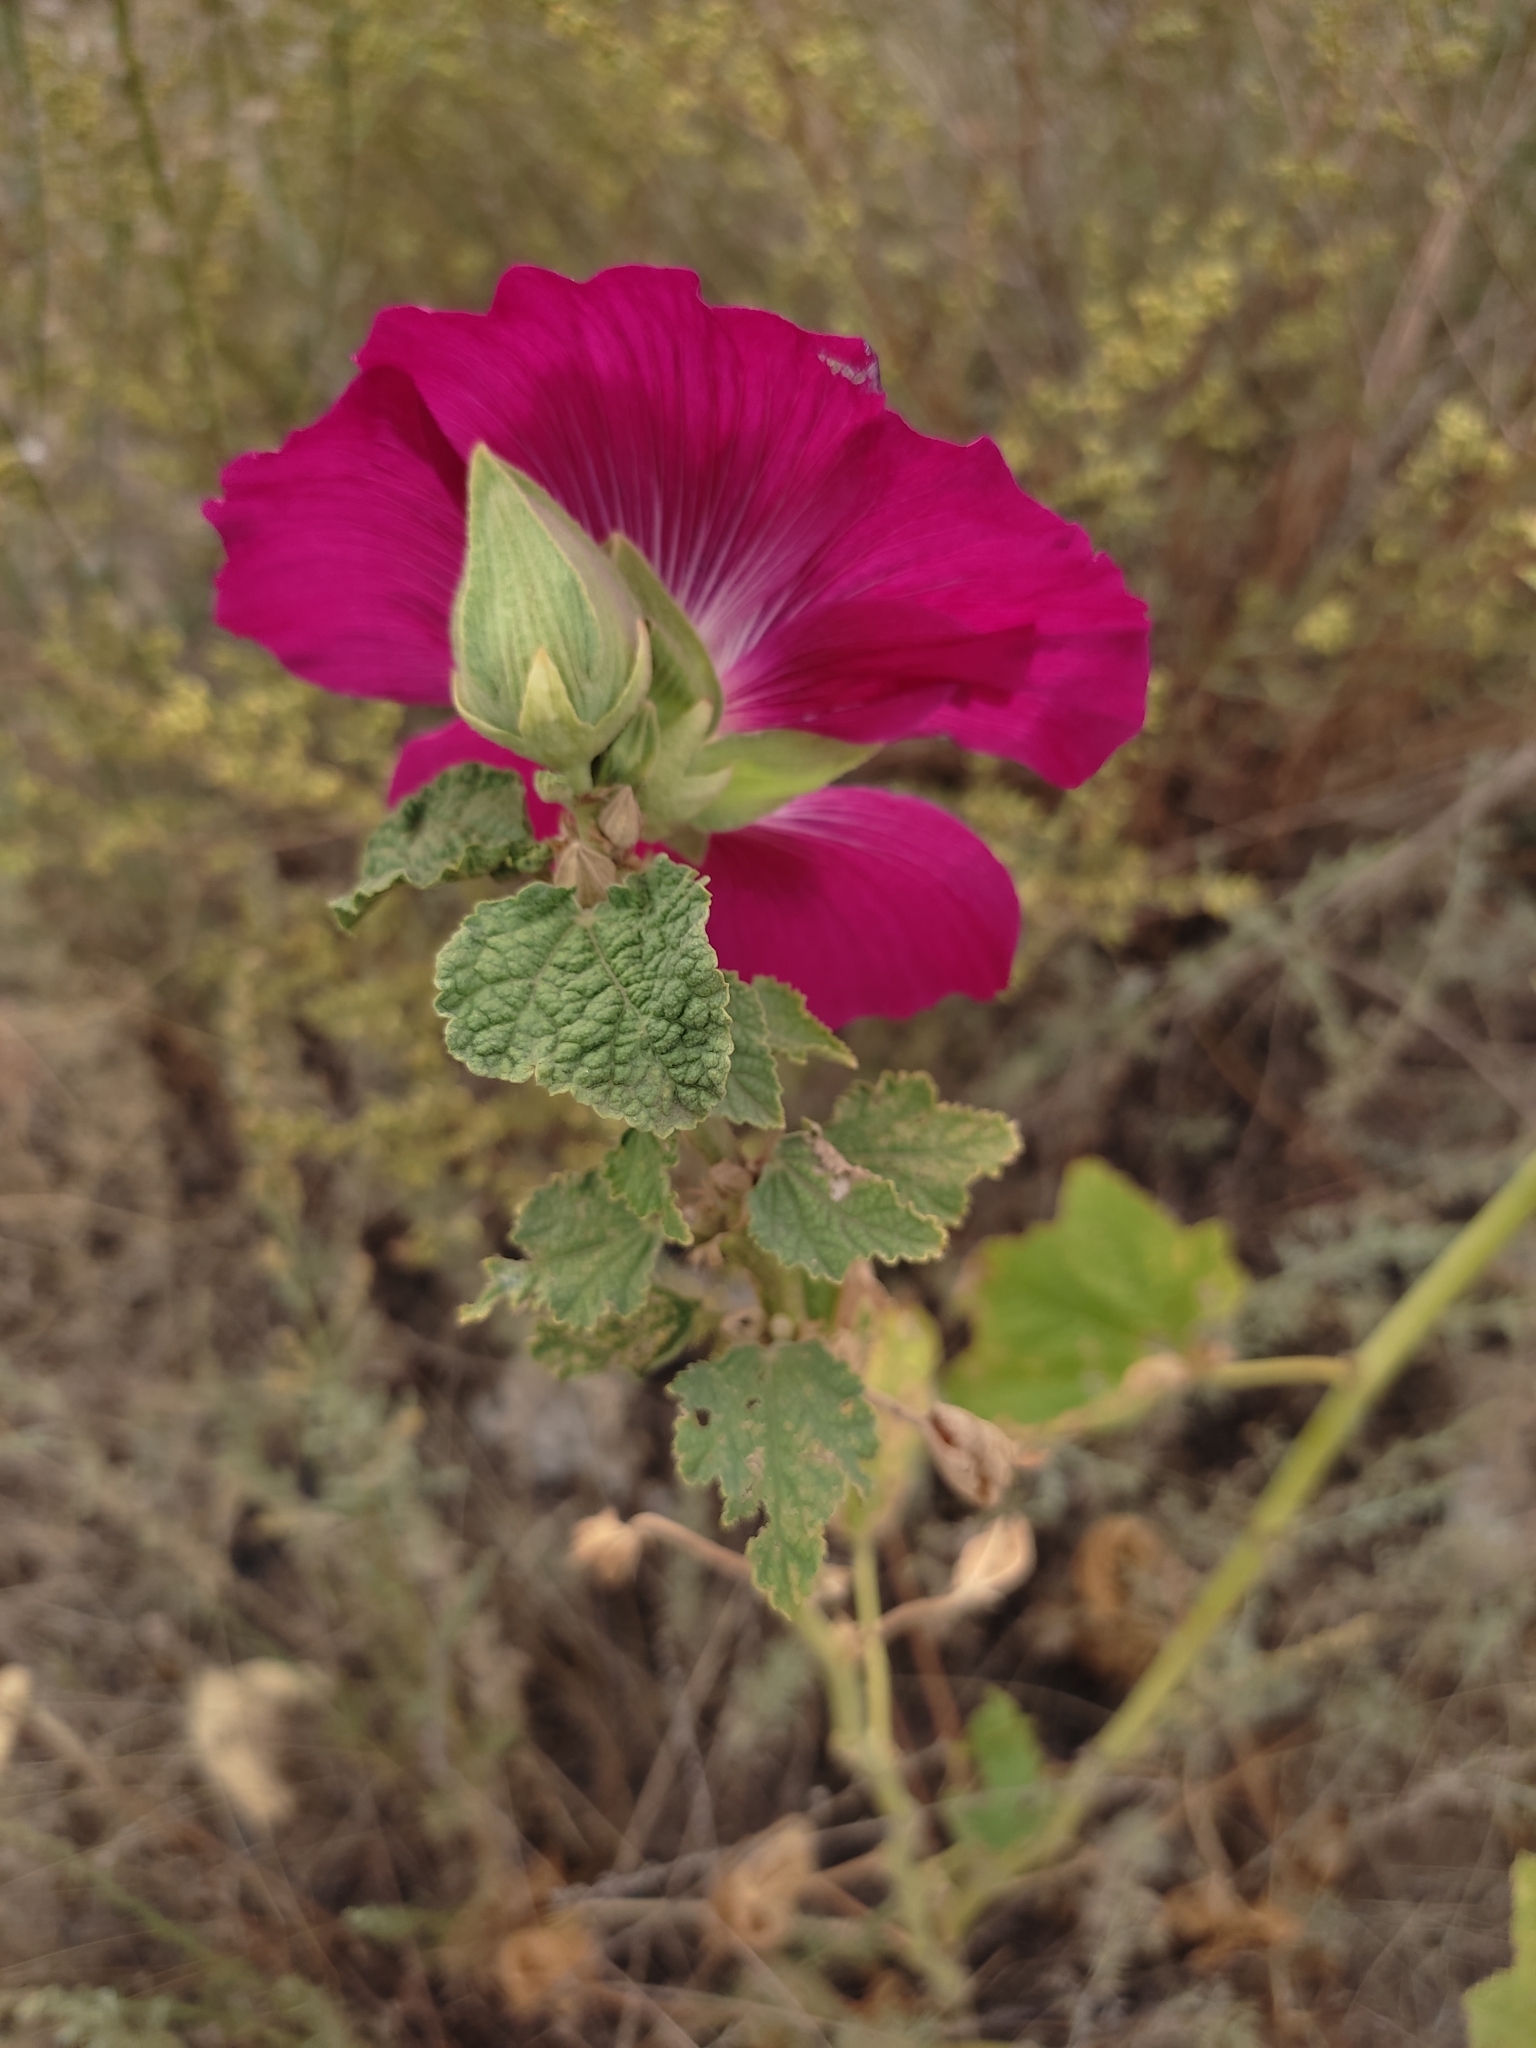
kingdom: Plantae
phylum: Tracheophyta
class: Magnoliopsida
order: Malvales
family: Malvaceae
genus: Alcea
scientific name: Alcea rosea
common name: Hollyhock
